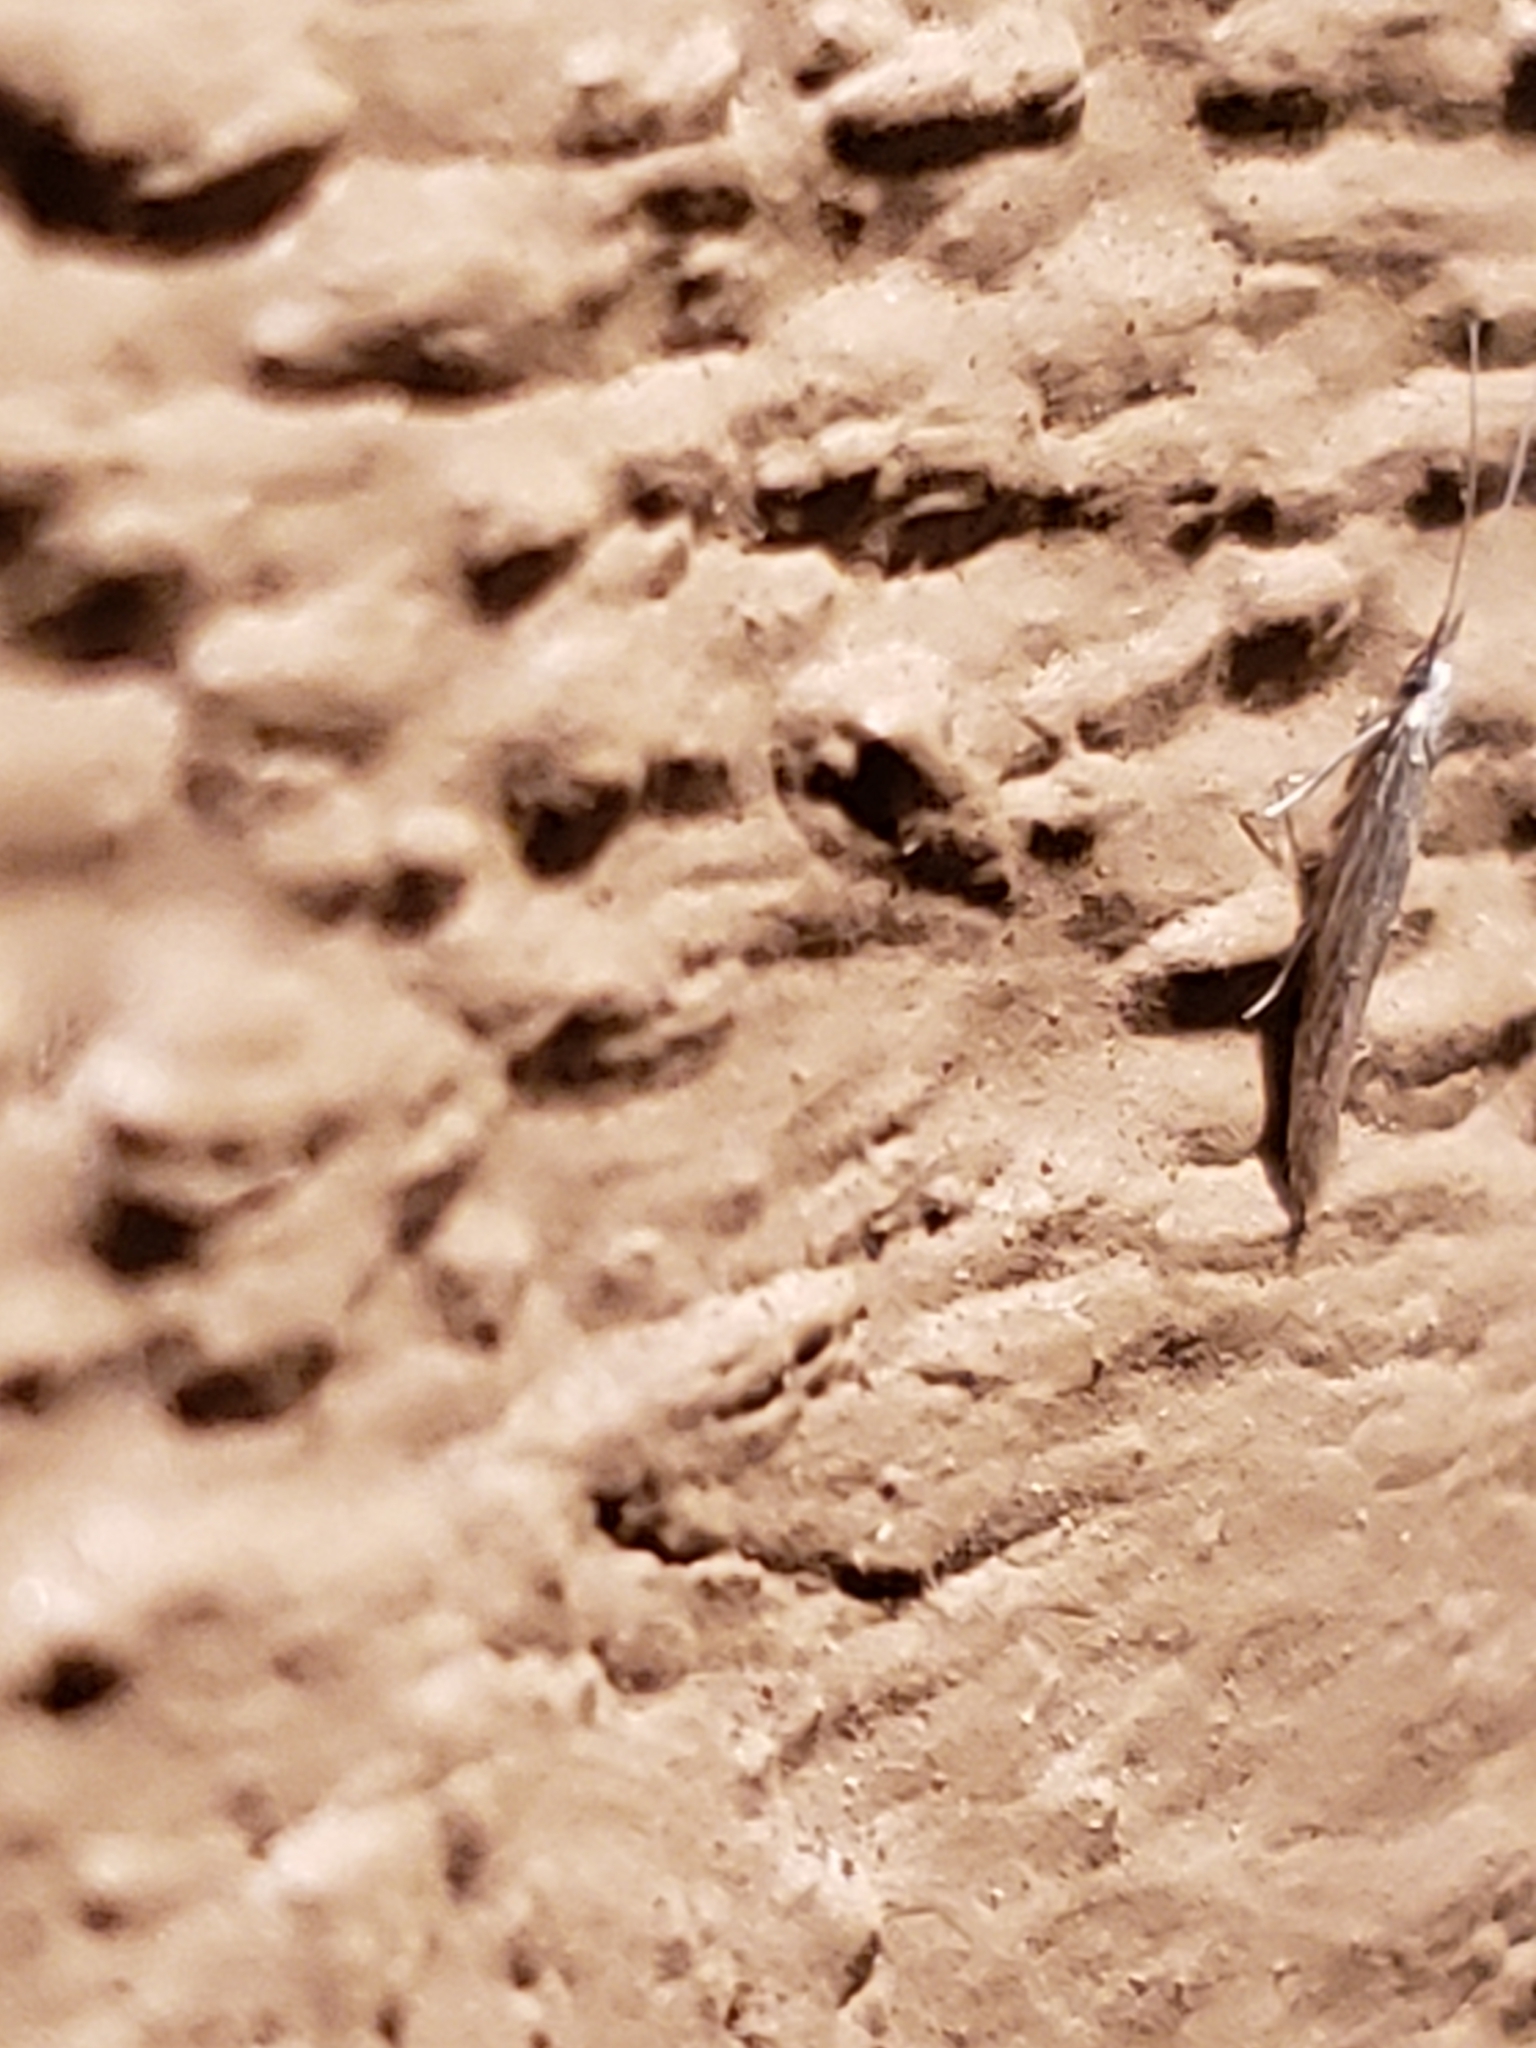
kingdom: Animalia
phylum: Arthropoda
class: Insecta
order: Lepidoptera
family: Coleophoridae
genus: Coleophora
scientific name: Coleophora
